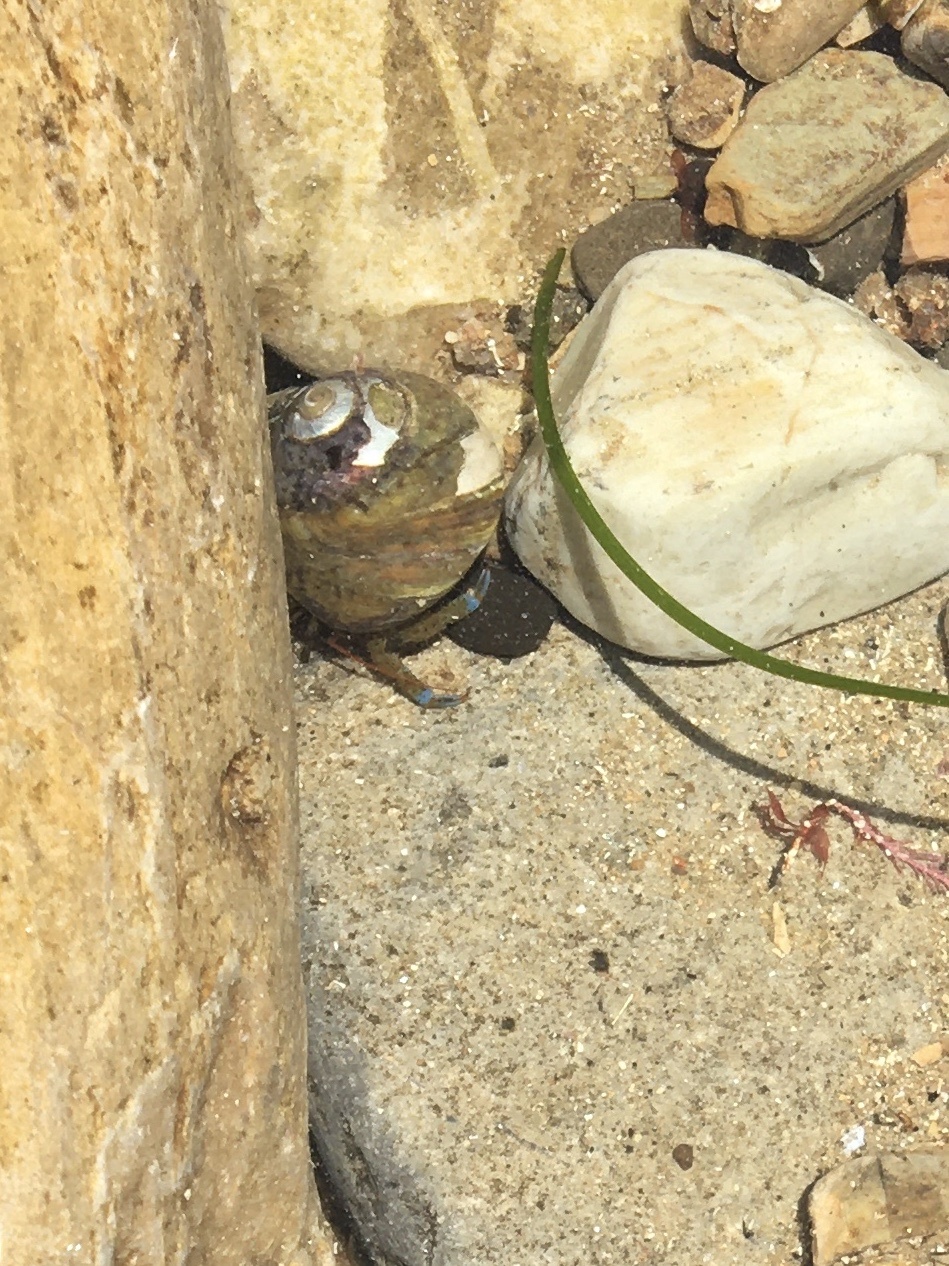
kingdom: Animalia
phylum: Arthropoda
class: Malacostraca
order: Decapoda
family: Paguridae
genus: Pagurus
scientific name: Pagurus samuelis
